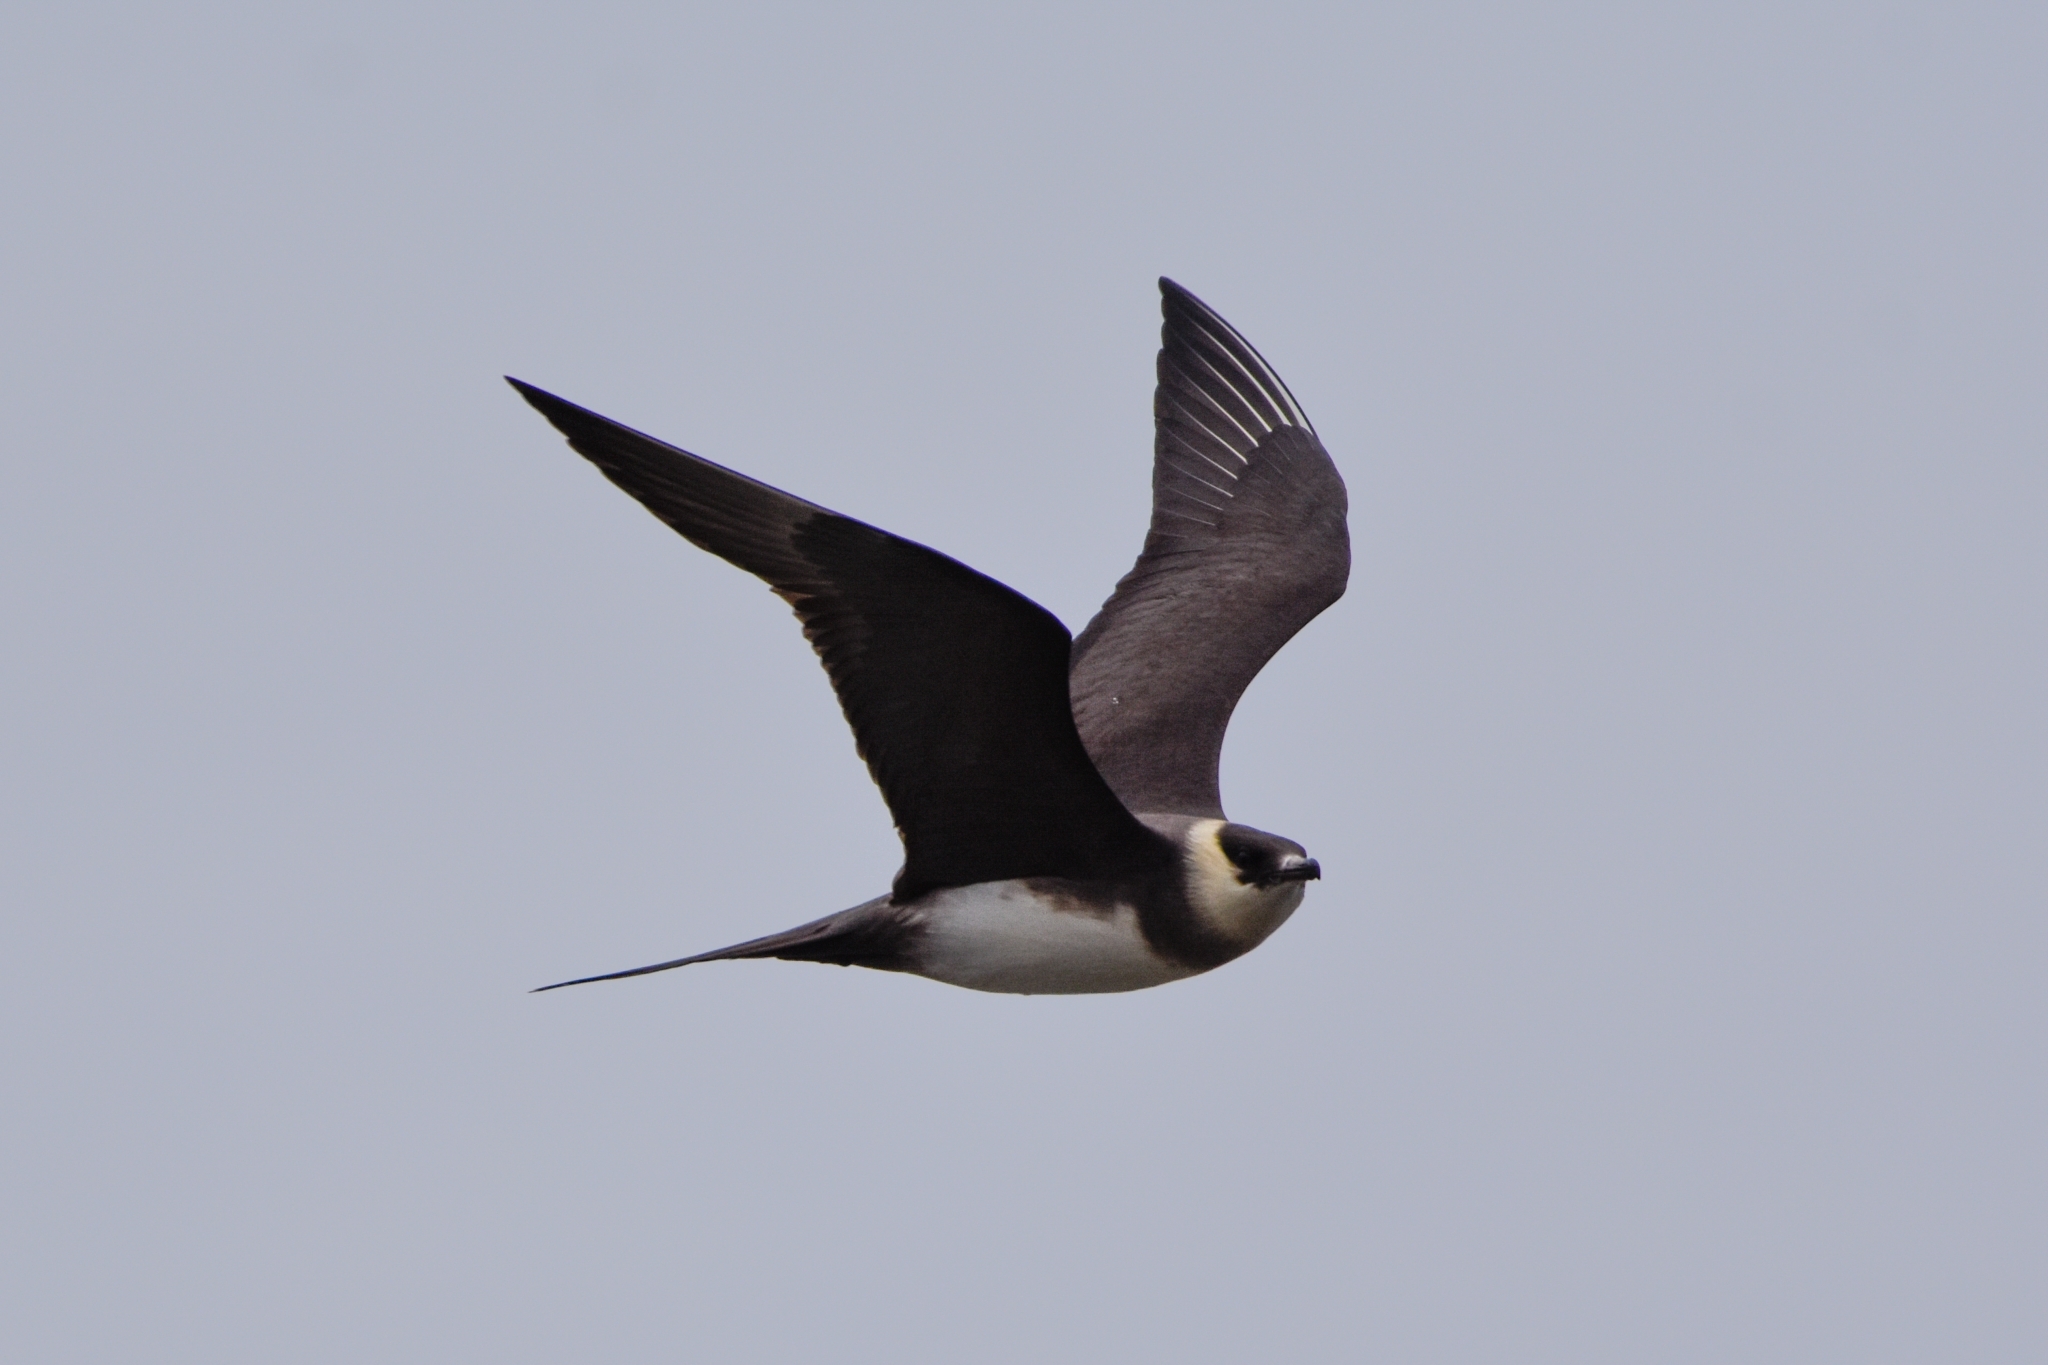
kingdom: Animalia
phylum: Chordata
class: Aves
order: Charadriiformes
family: Stercorariidae
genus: Stercorarius
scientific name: Stercorarius parasiticus
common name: Parasitic jaeger
